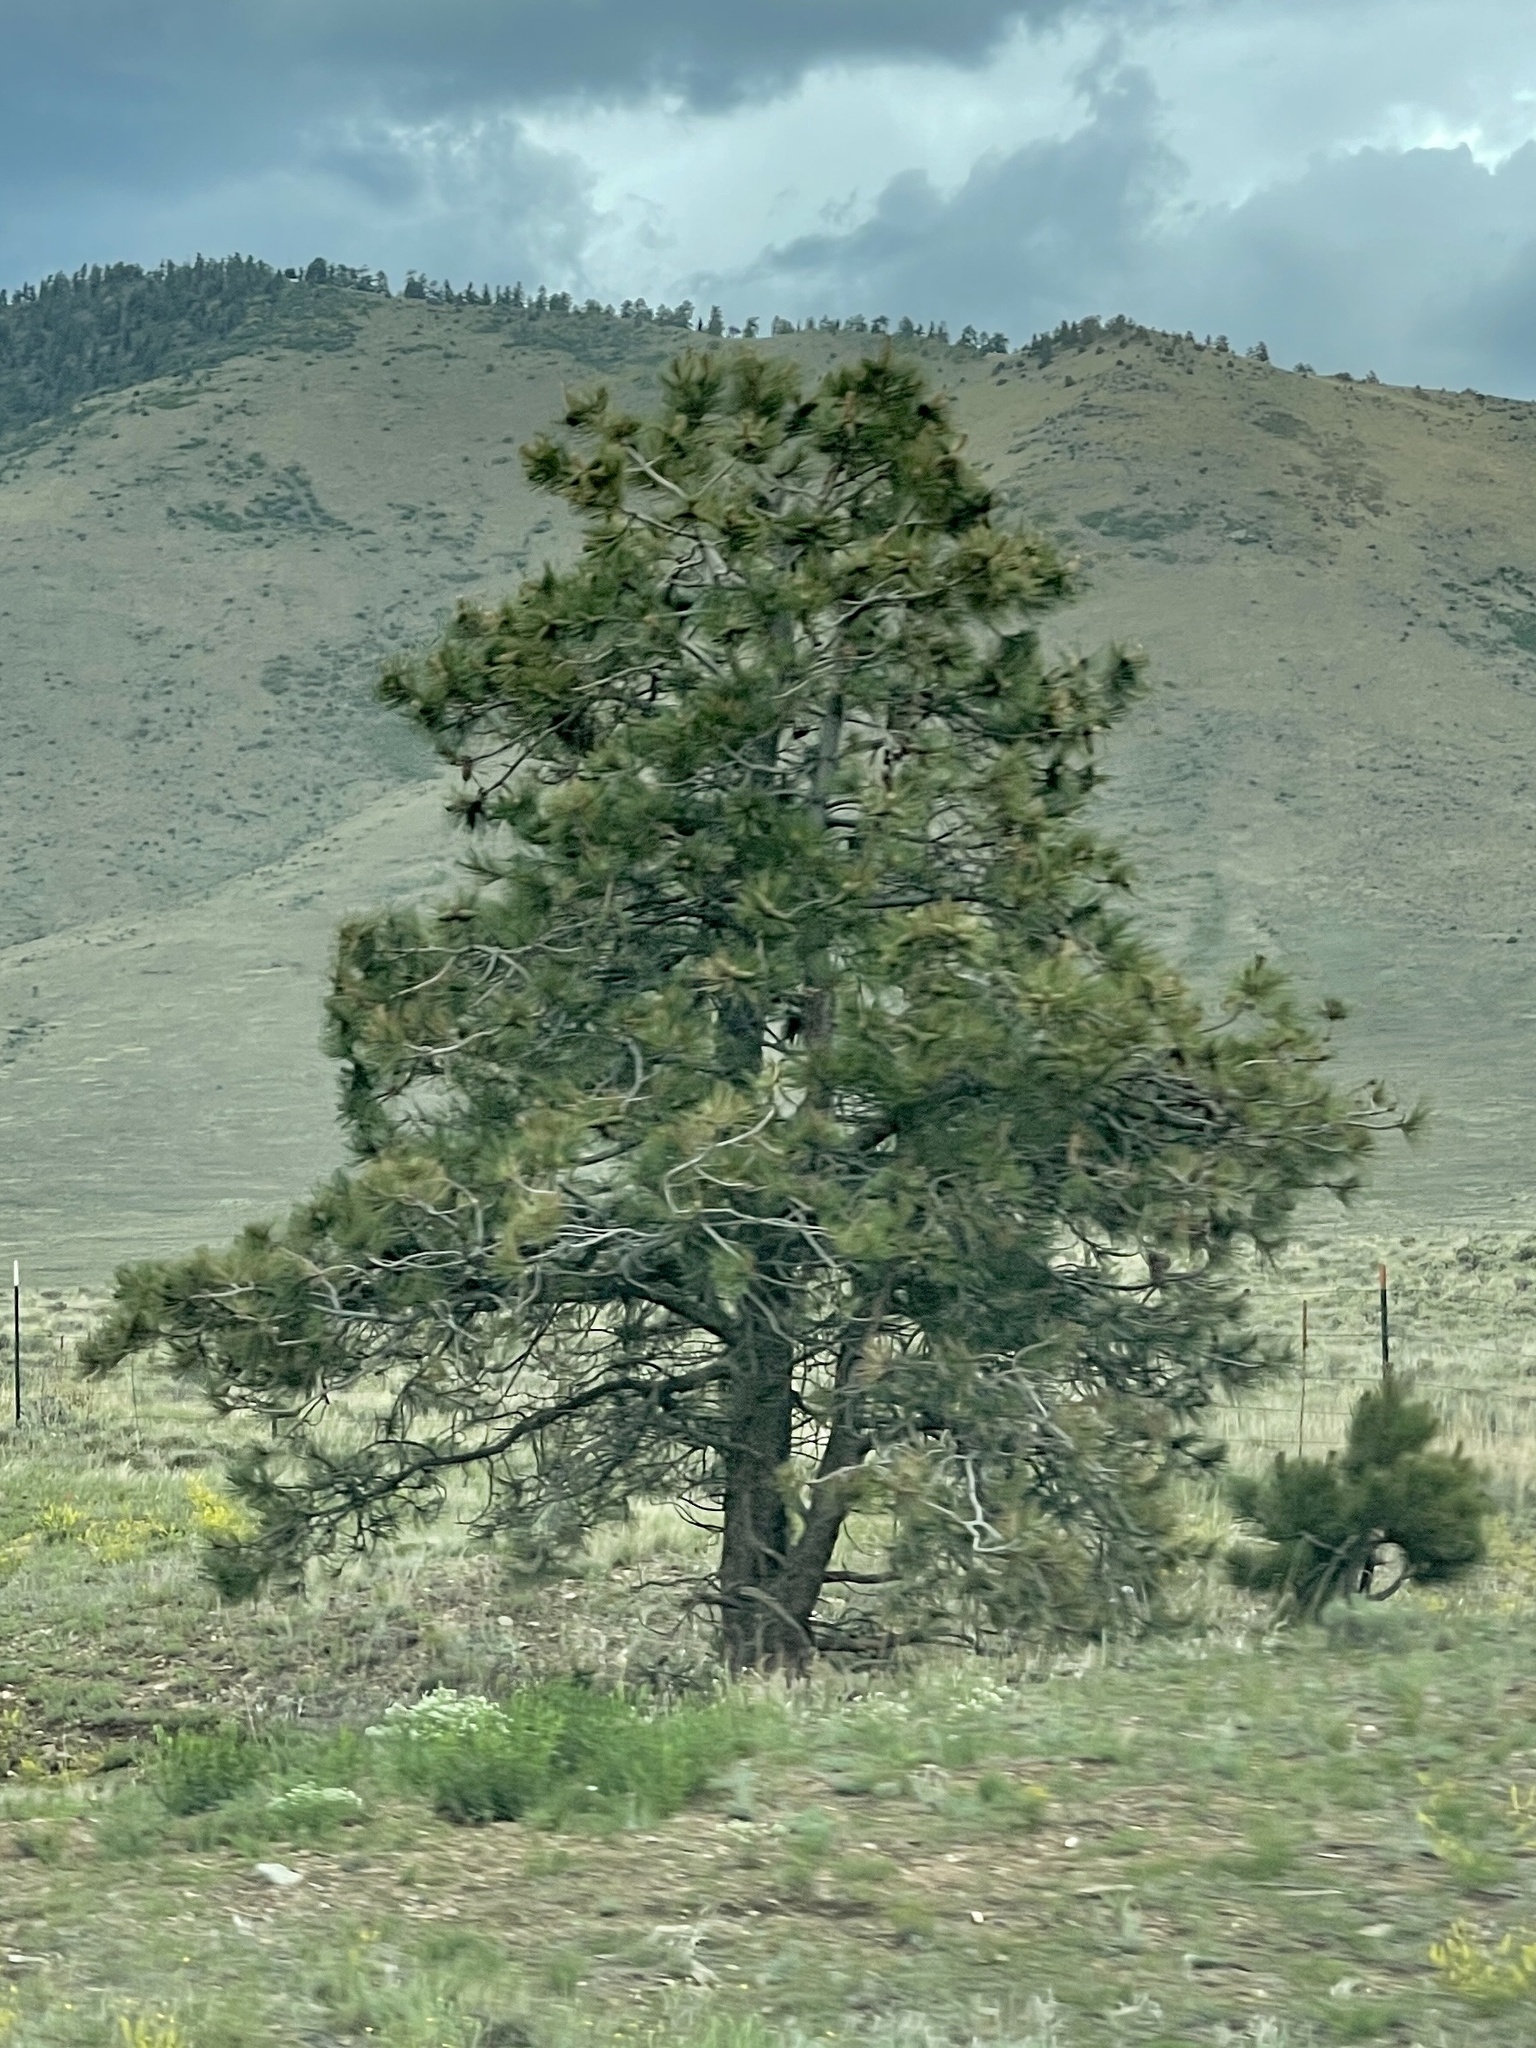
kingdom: Plantae
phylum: Tracheophyta
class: Pinopsida
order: Pinales
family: Pinaceae
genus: Pinus
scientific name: Pinus ponderosa
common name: Western yellow-pine
